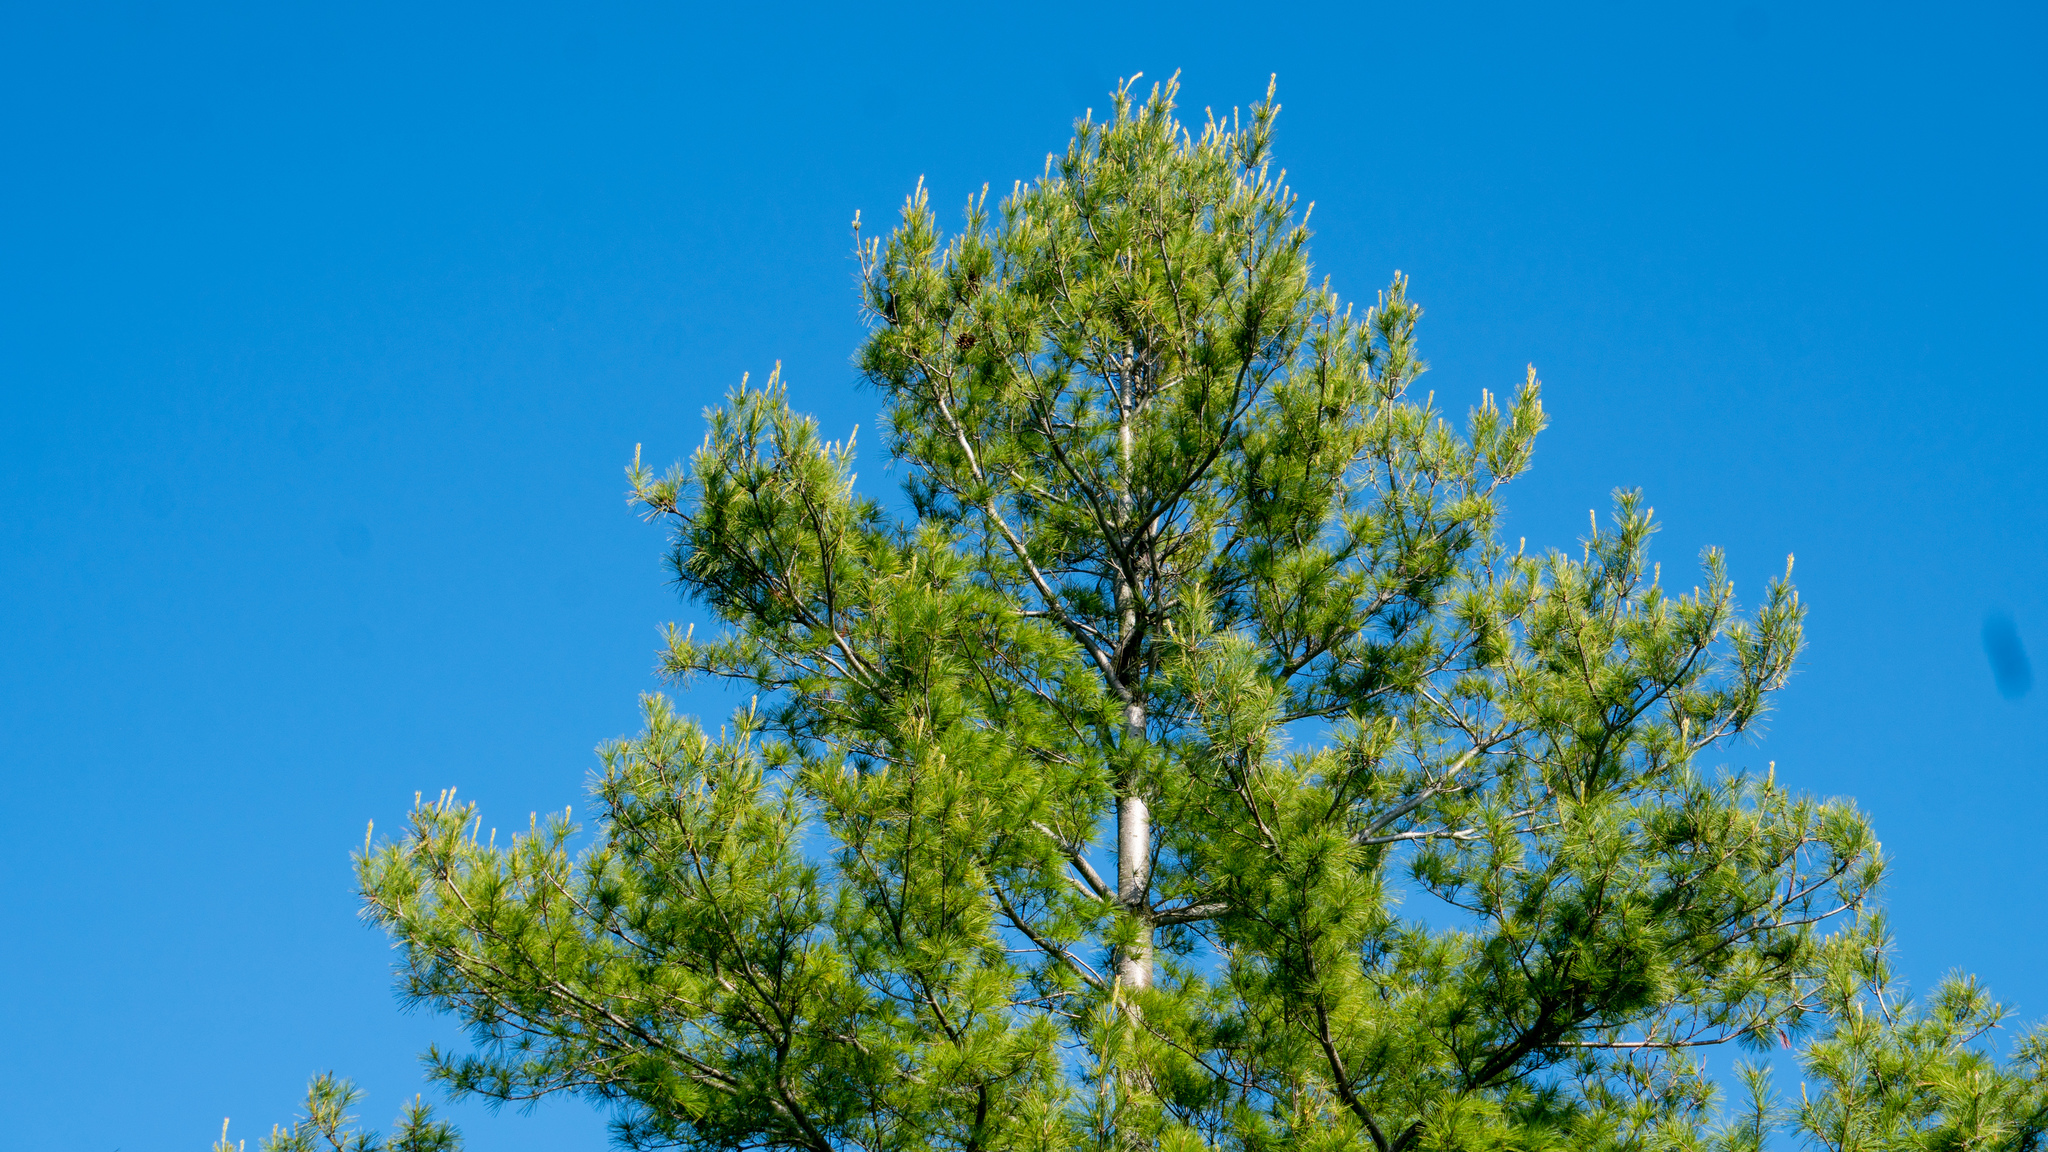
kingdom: Plantae
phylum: Tracheophyta
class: Pinopsida
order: Pinales
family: Pinaceae
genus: Pinus
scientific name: Pinus strobus
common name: Weymouth pine
